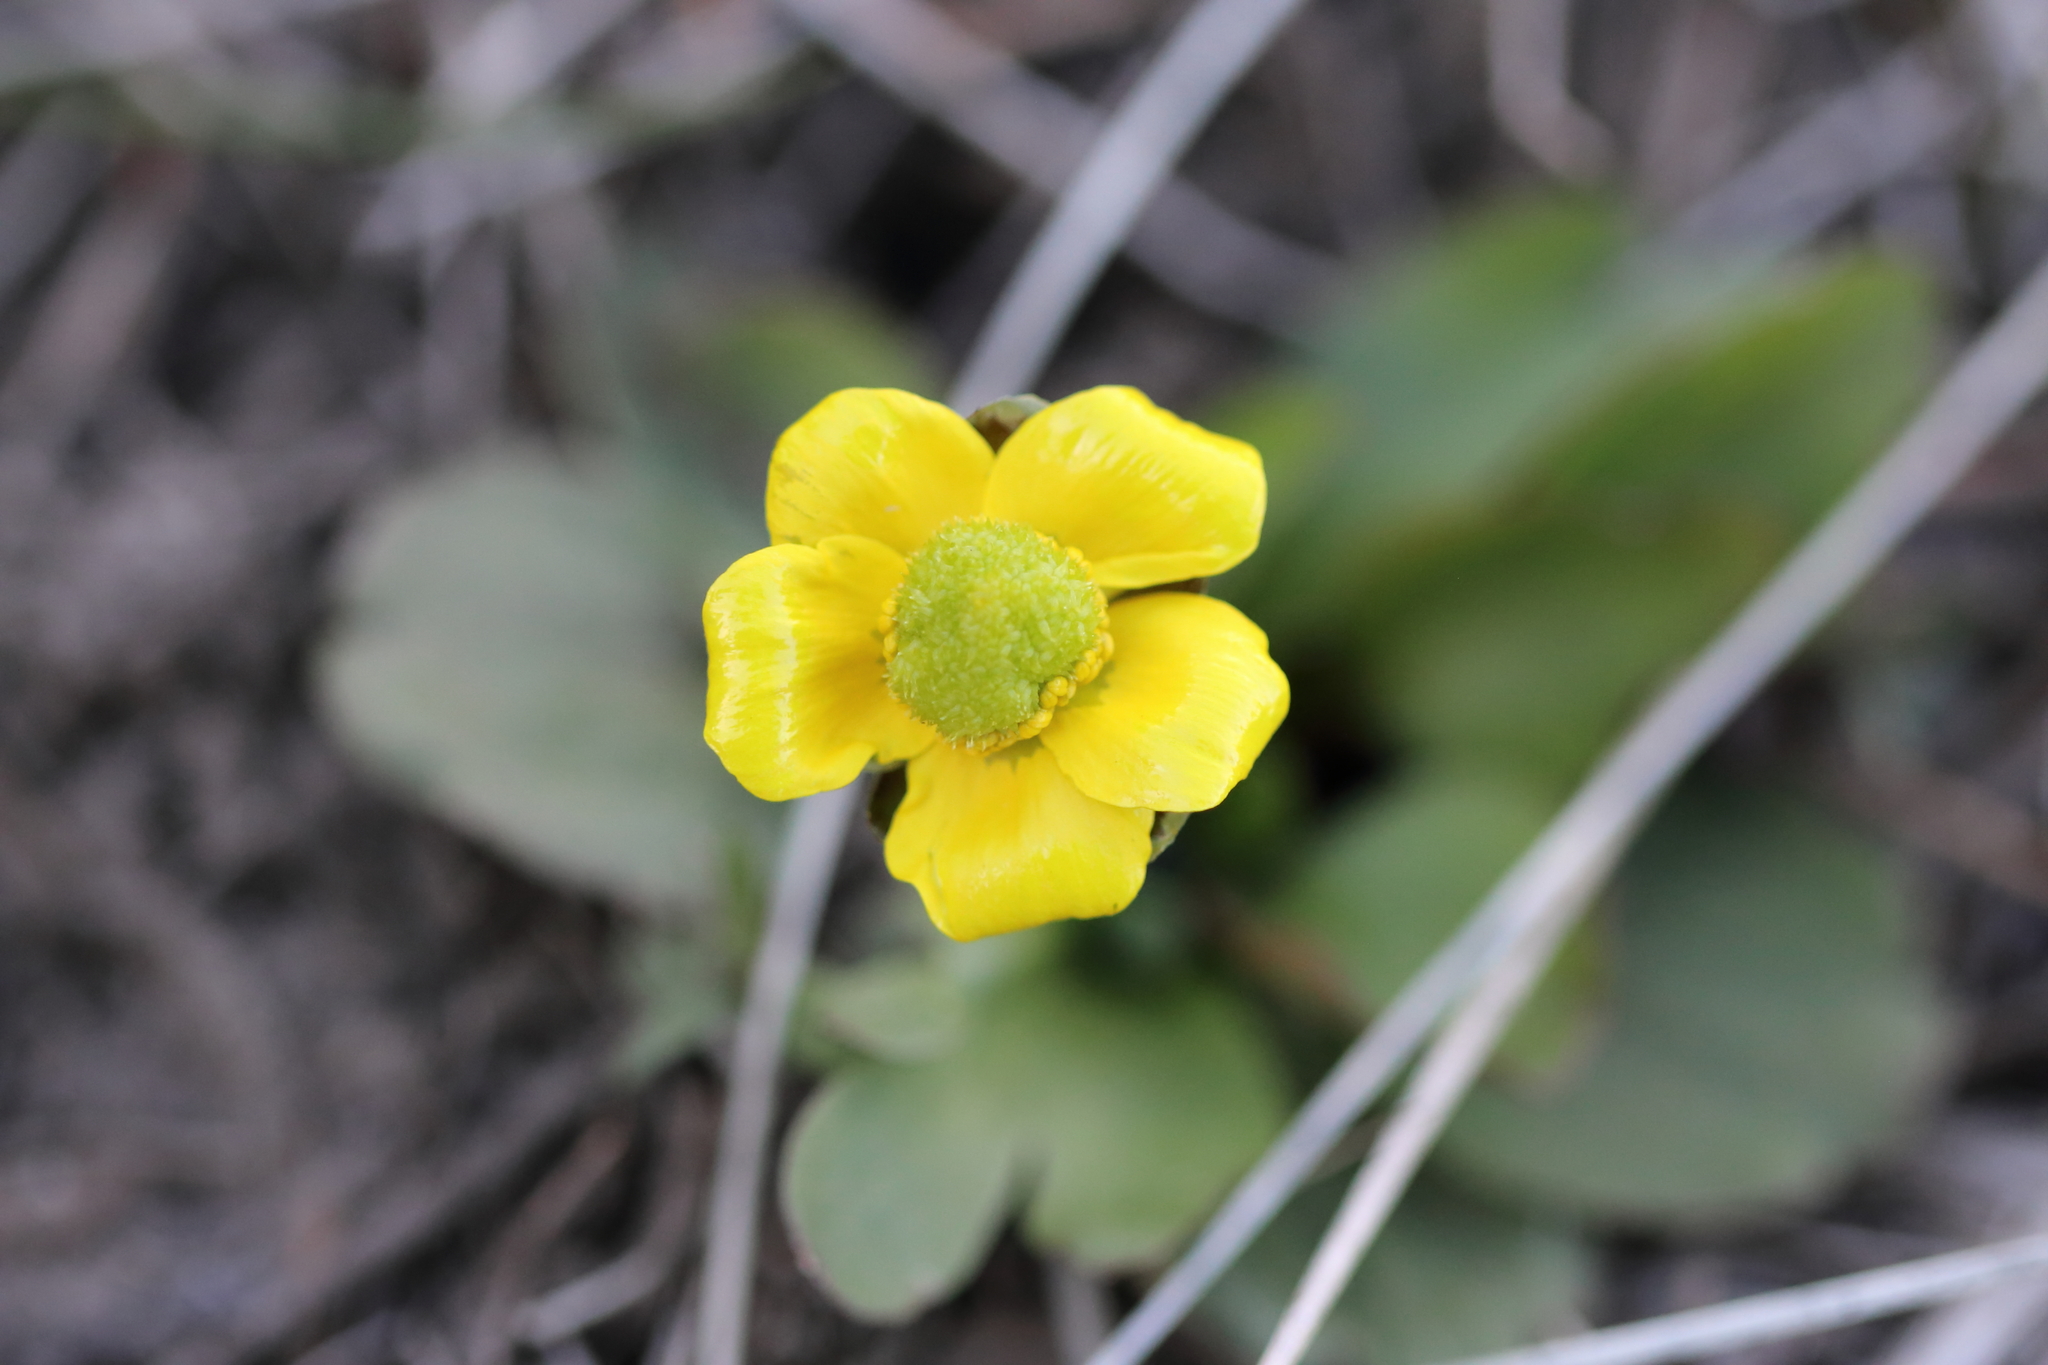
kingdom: Plantae
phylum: Tracheophyta
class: Magnoliopsida
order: Ranunculales
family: Ranunculaceae
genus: Ranunculus
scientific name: Ranunculus glaberrimus
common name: Sagebrush buttercup
